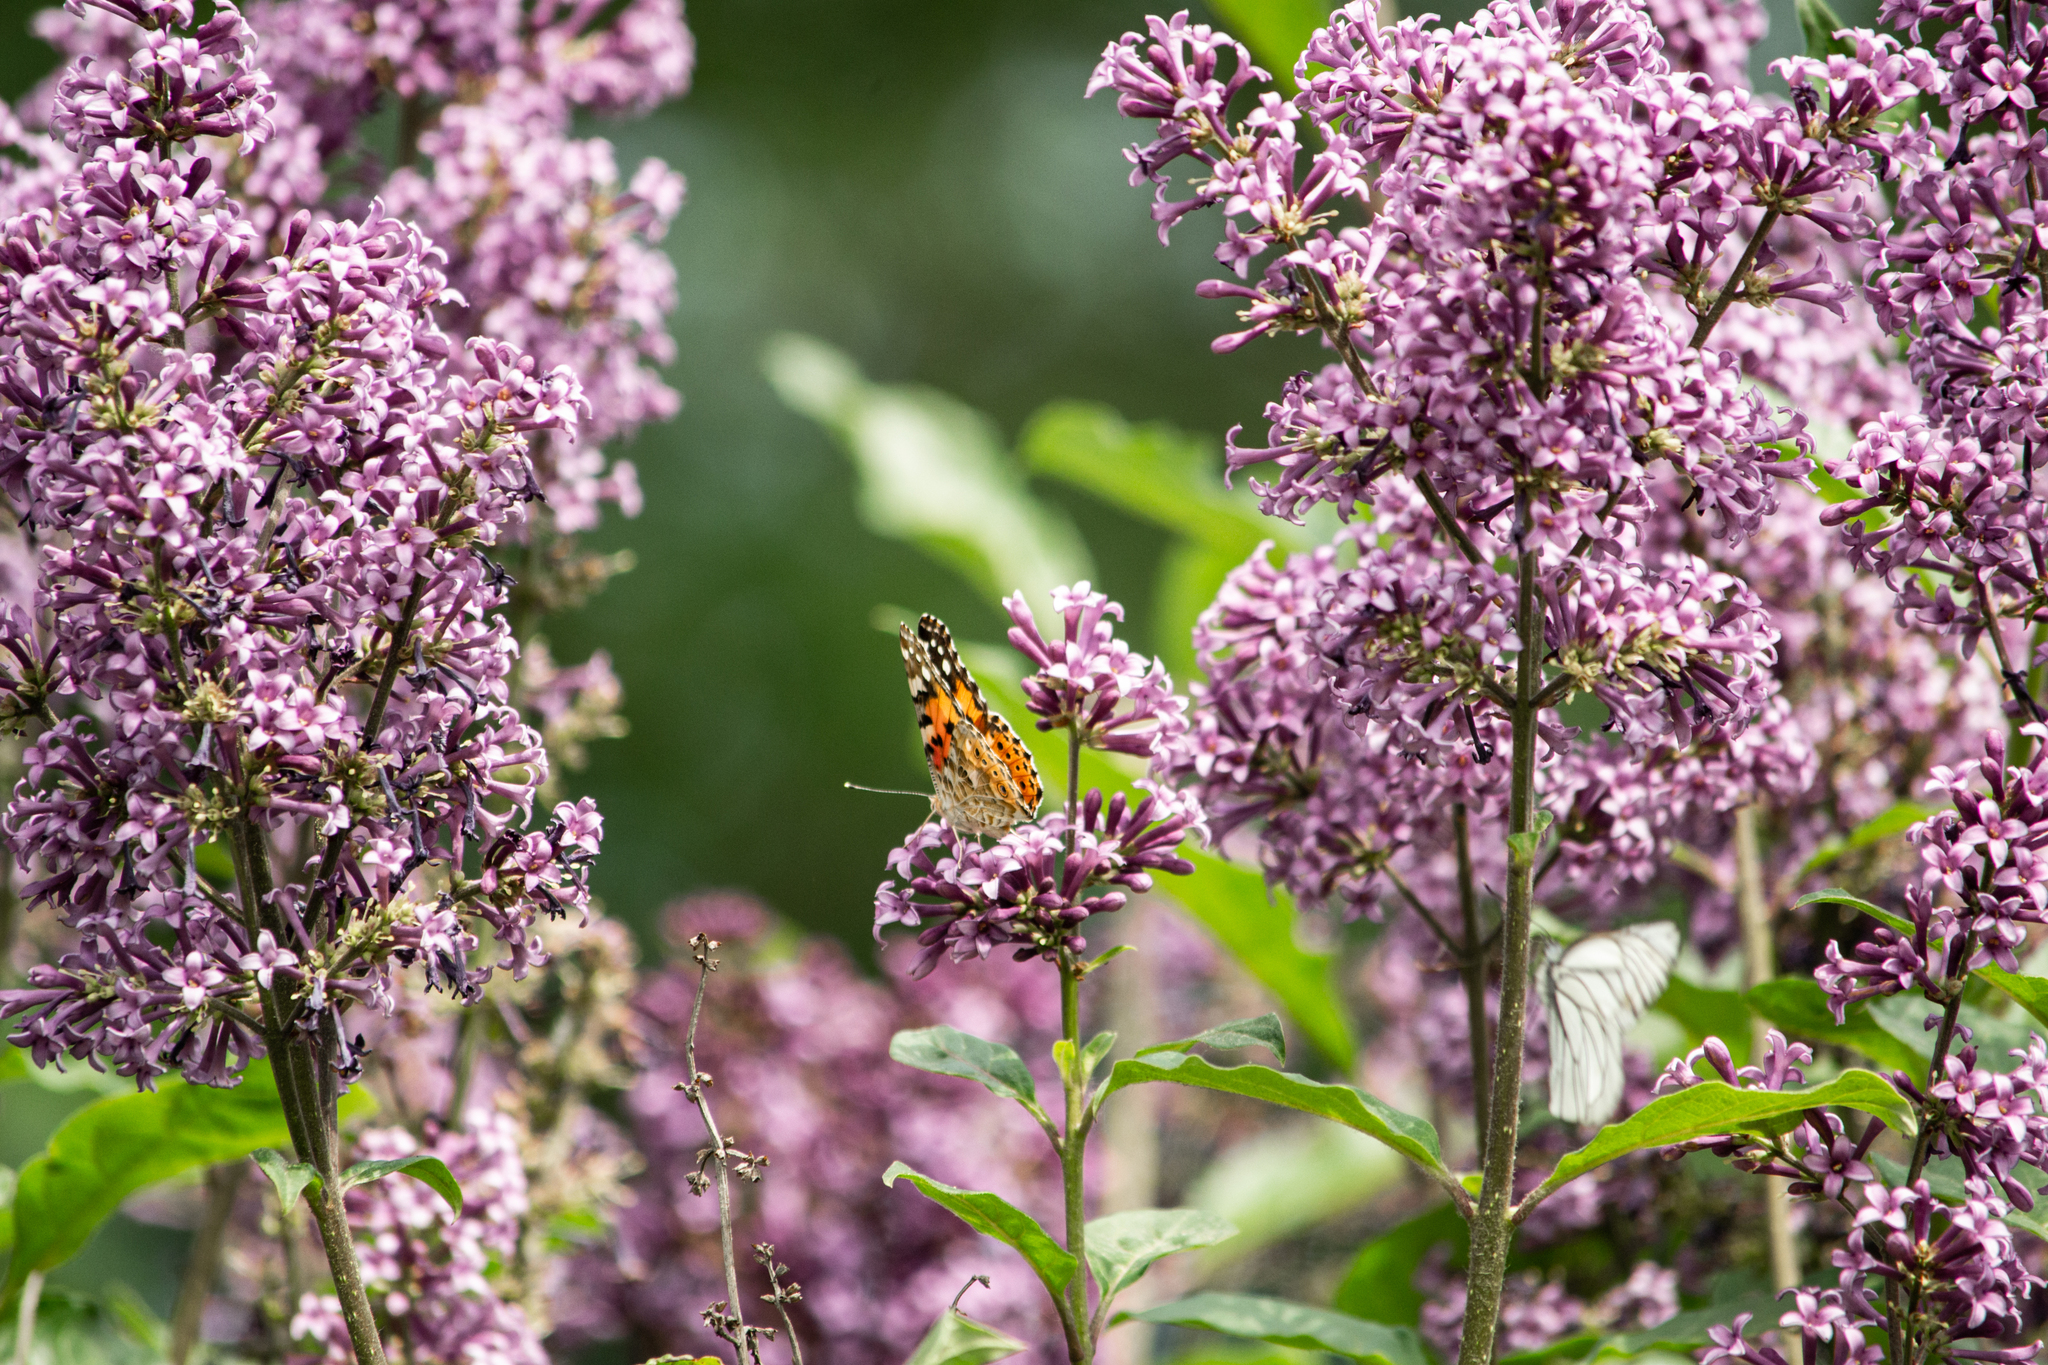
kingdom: Animalia
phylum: Arthropoda
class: Insecta
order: Lepidoptera
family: Nymphalidae
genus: Vanessa
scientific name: Vanessa cardui
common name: Painted lady
